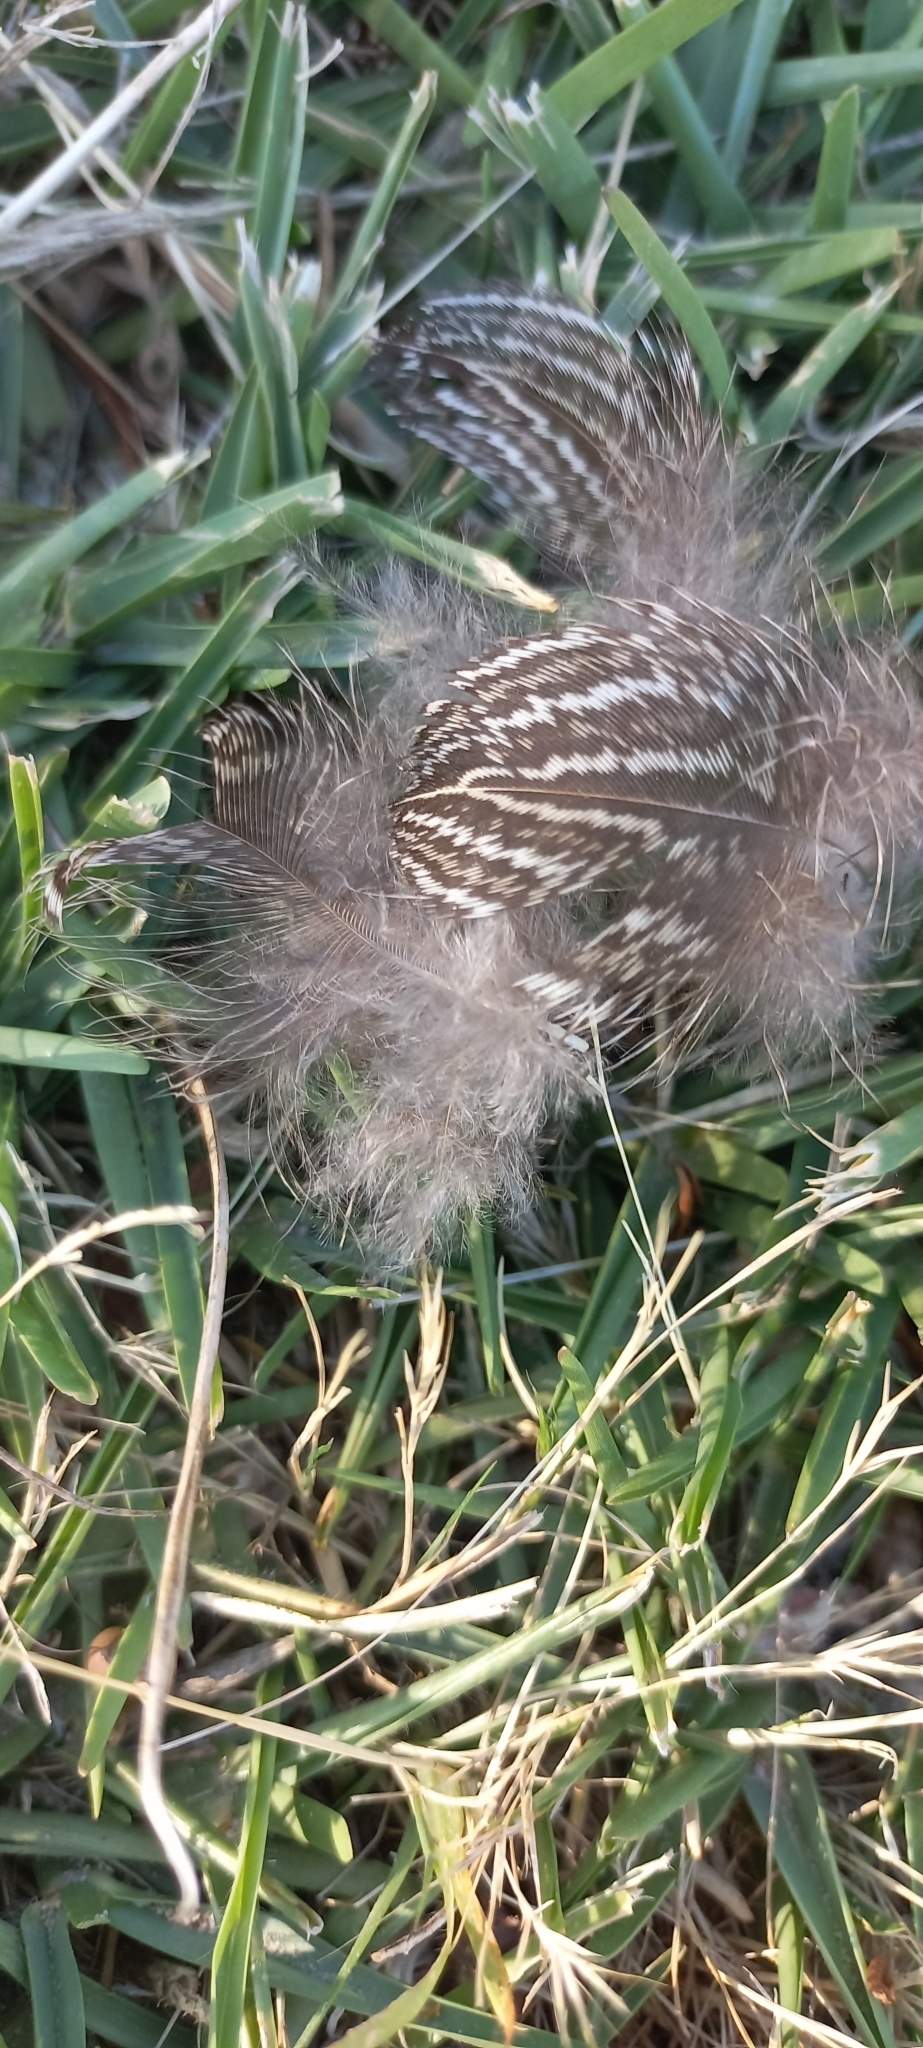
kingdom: Animalia
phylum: Chordata
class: Aves
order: Galliformes
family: Phasianidae
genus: Pternistis
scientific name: Pternistis capensis
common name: Cape spurfowl
